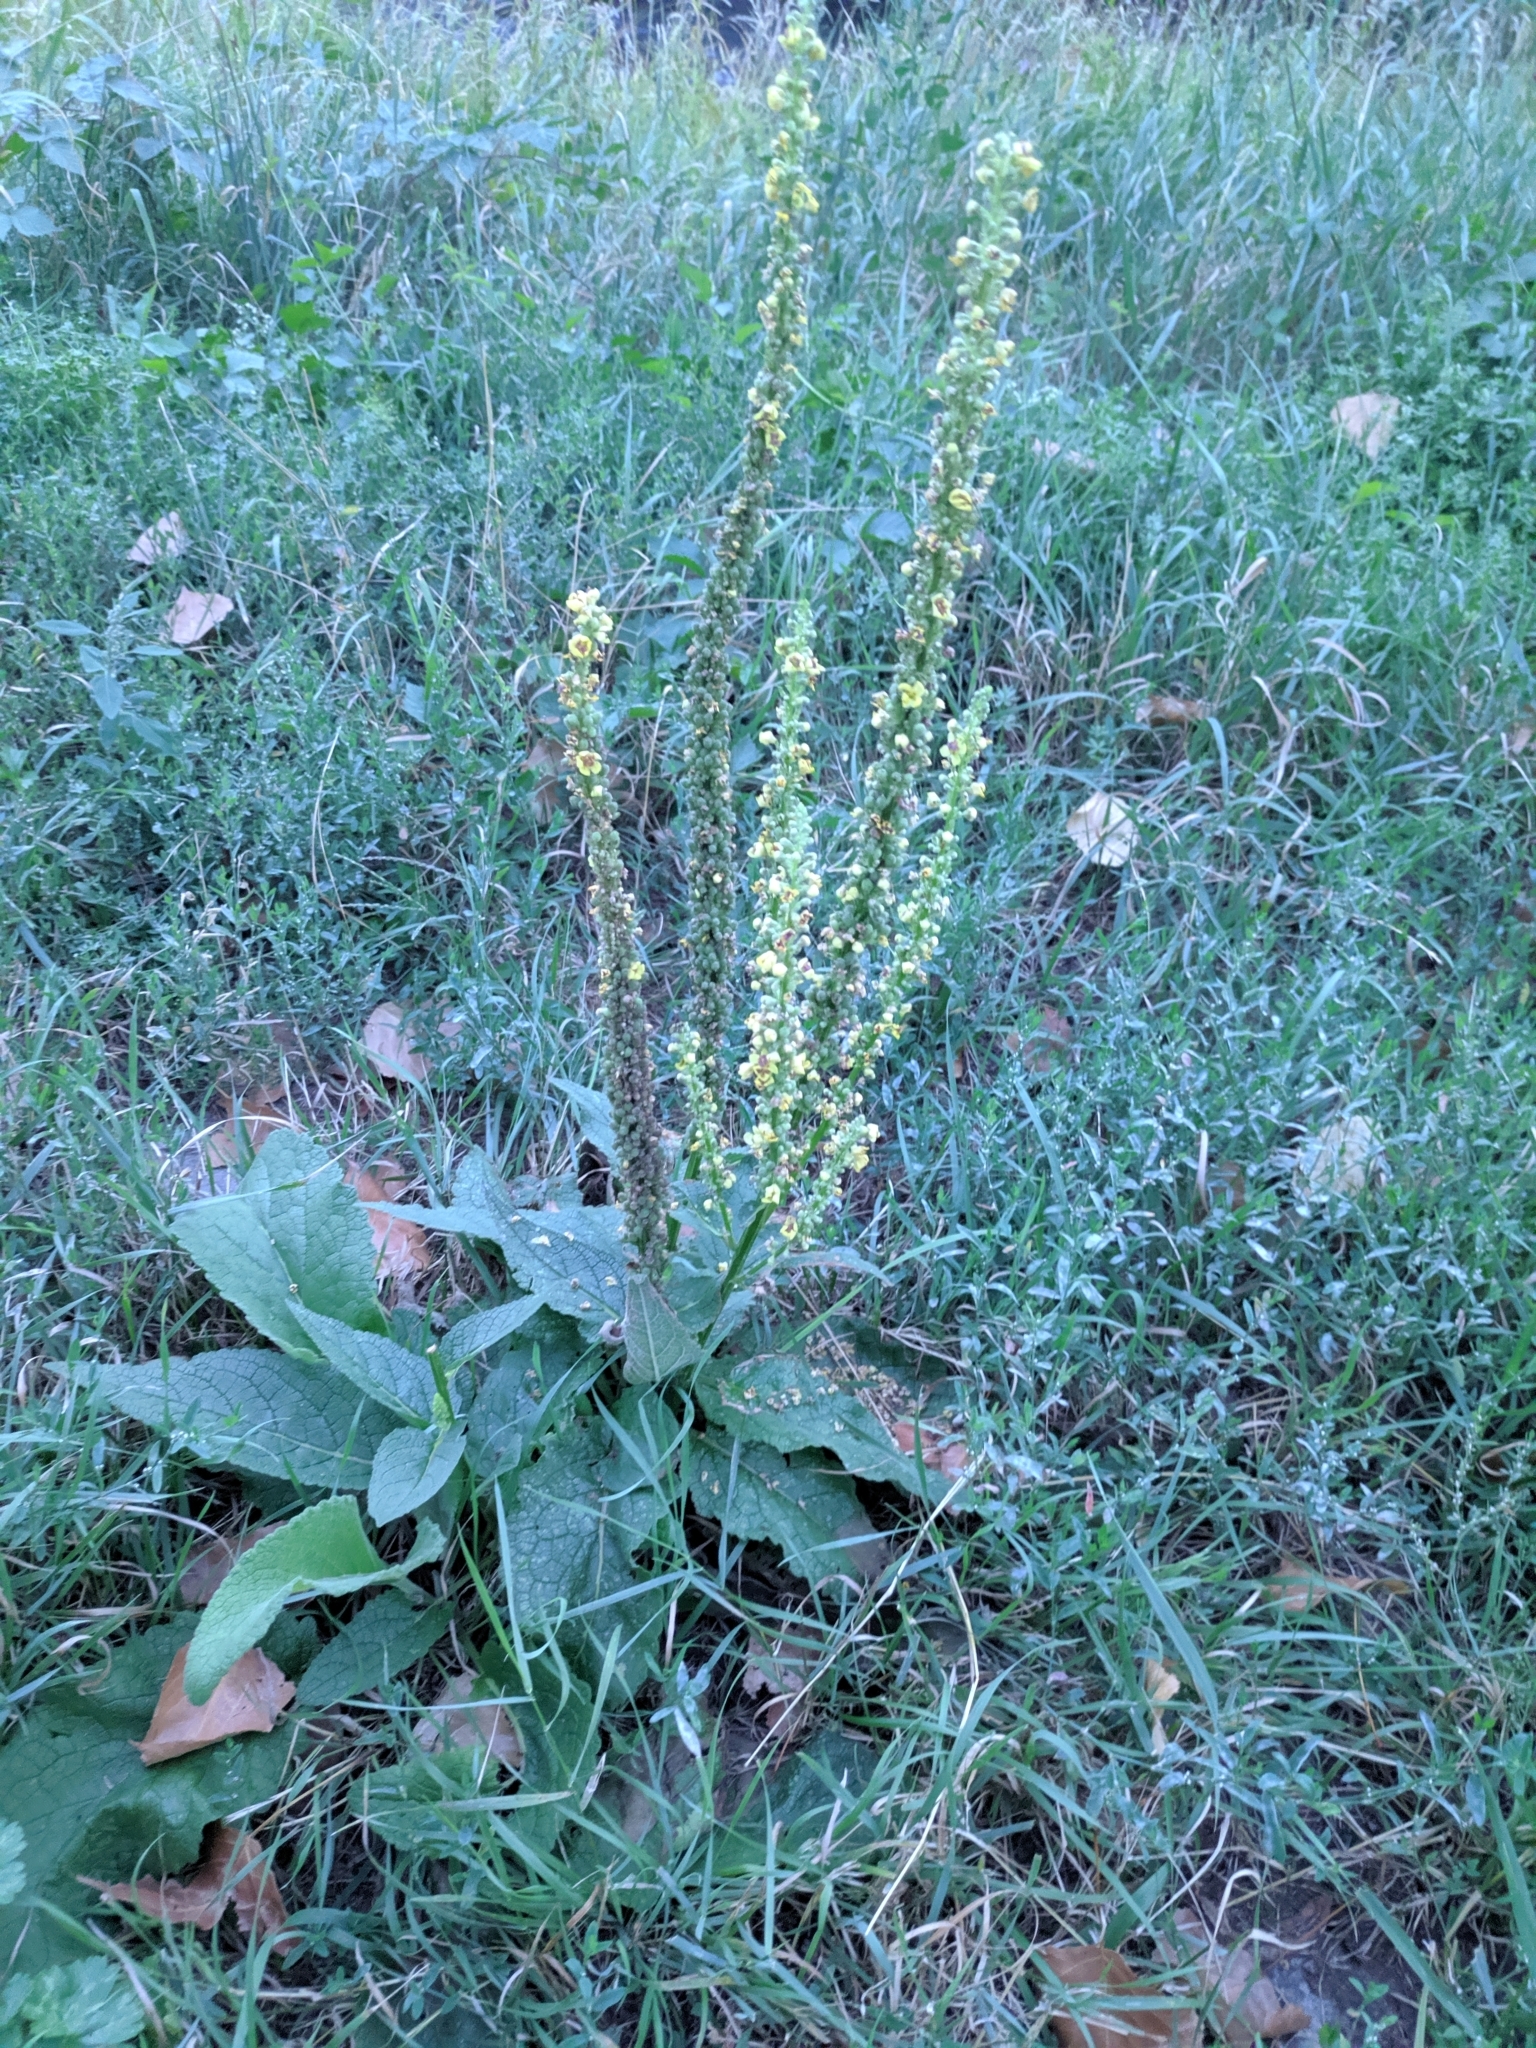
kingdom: Plantae
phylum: Tracheophyta
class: Magnoliopsida
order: Lamiales
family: Scrophulariaceae
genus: Verbascum
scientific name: Verbascum nigrum
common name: Dark mullein
